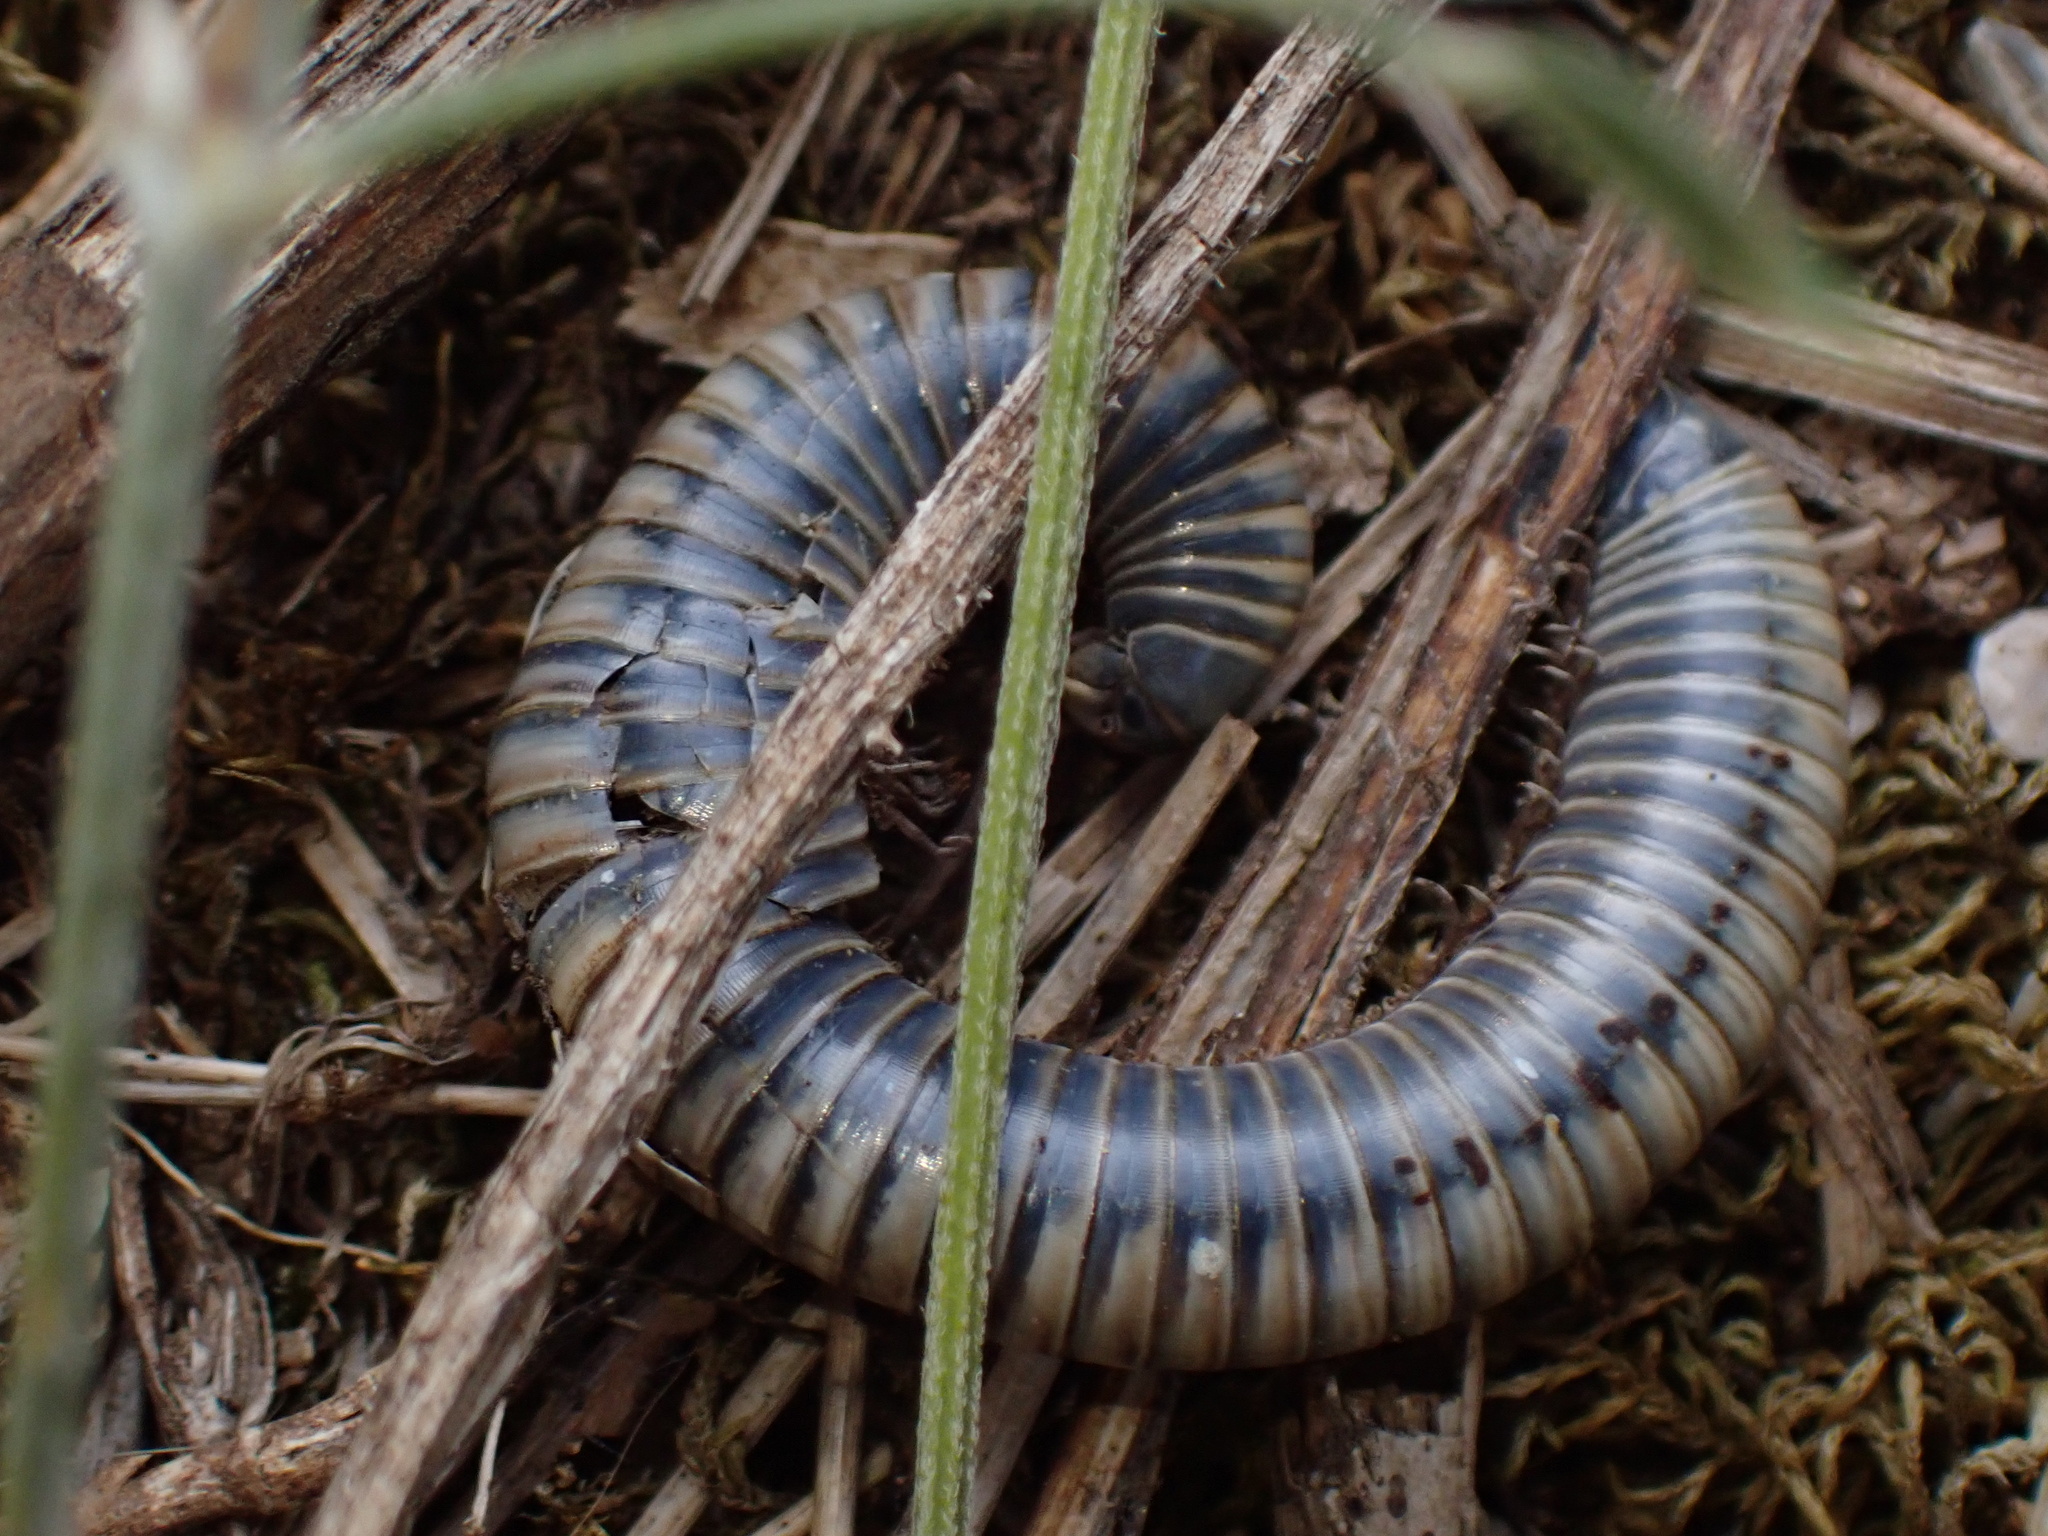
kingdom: Animalia
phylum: Arthropoda
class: Diplopoda
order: Julida
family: Julidae
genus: Acanthoiulus
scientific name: Acanthoiulus fuscipes
